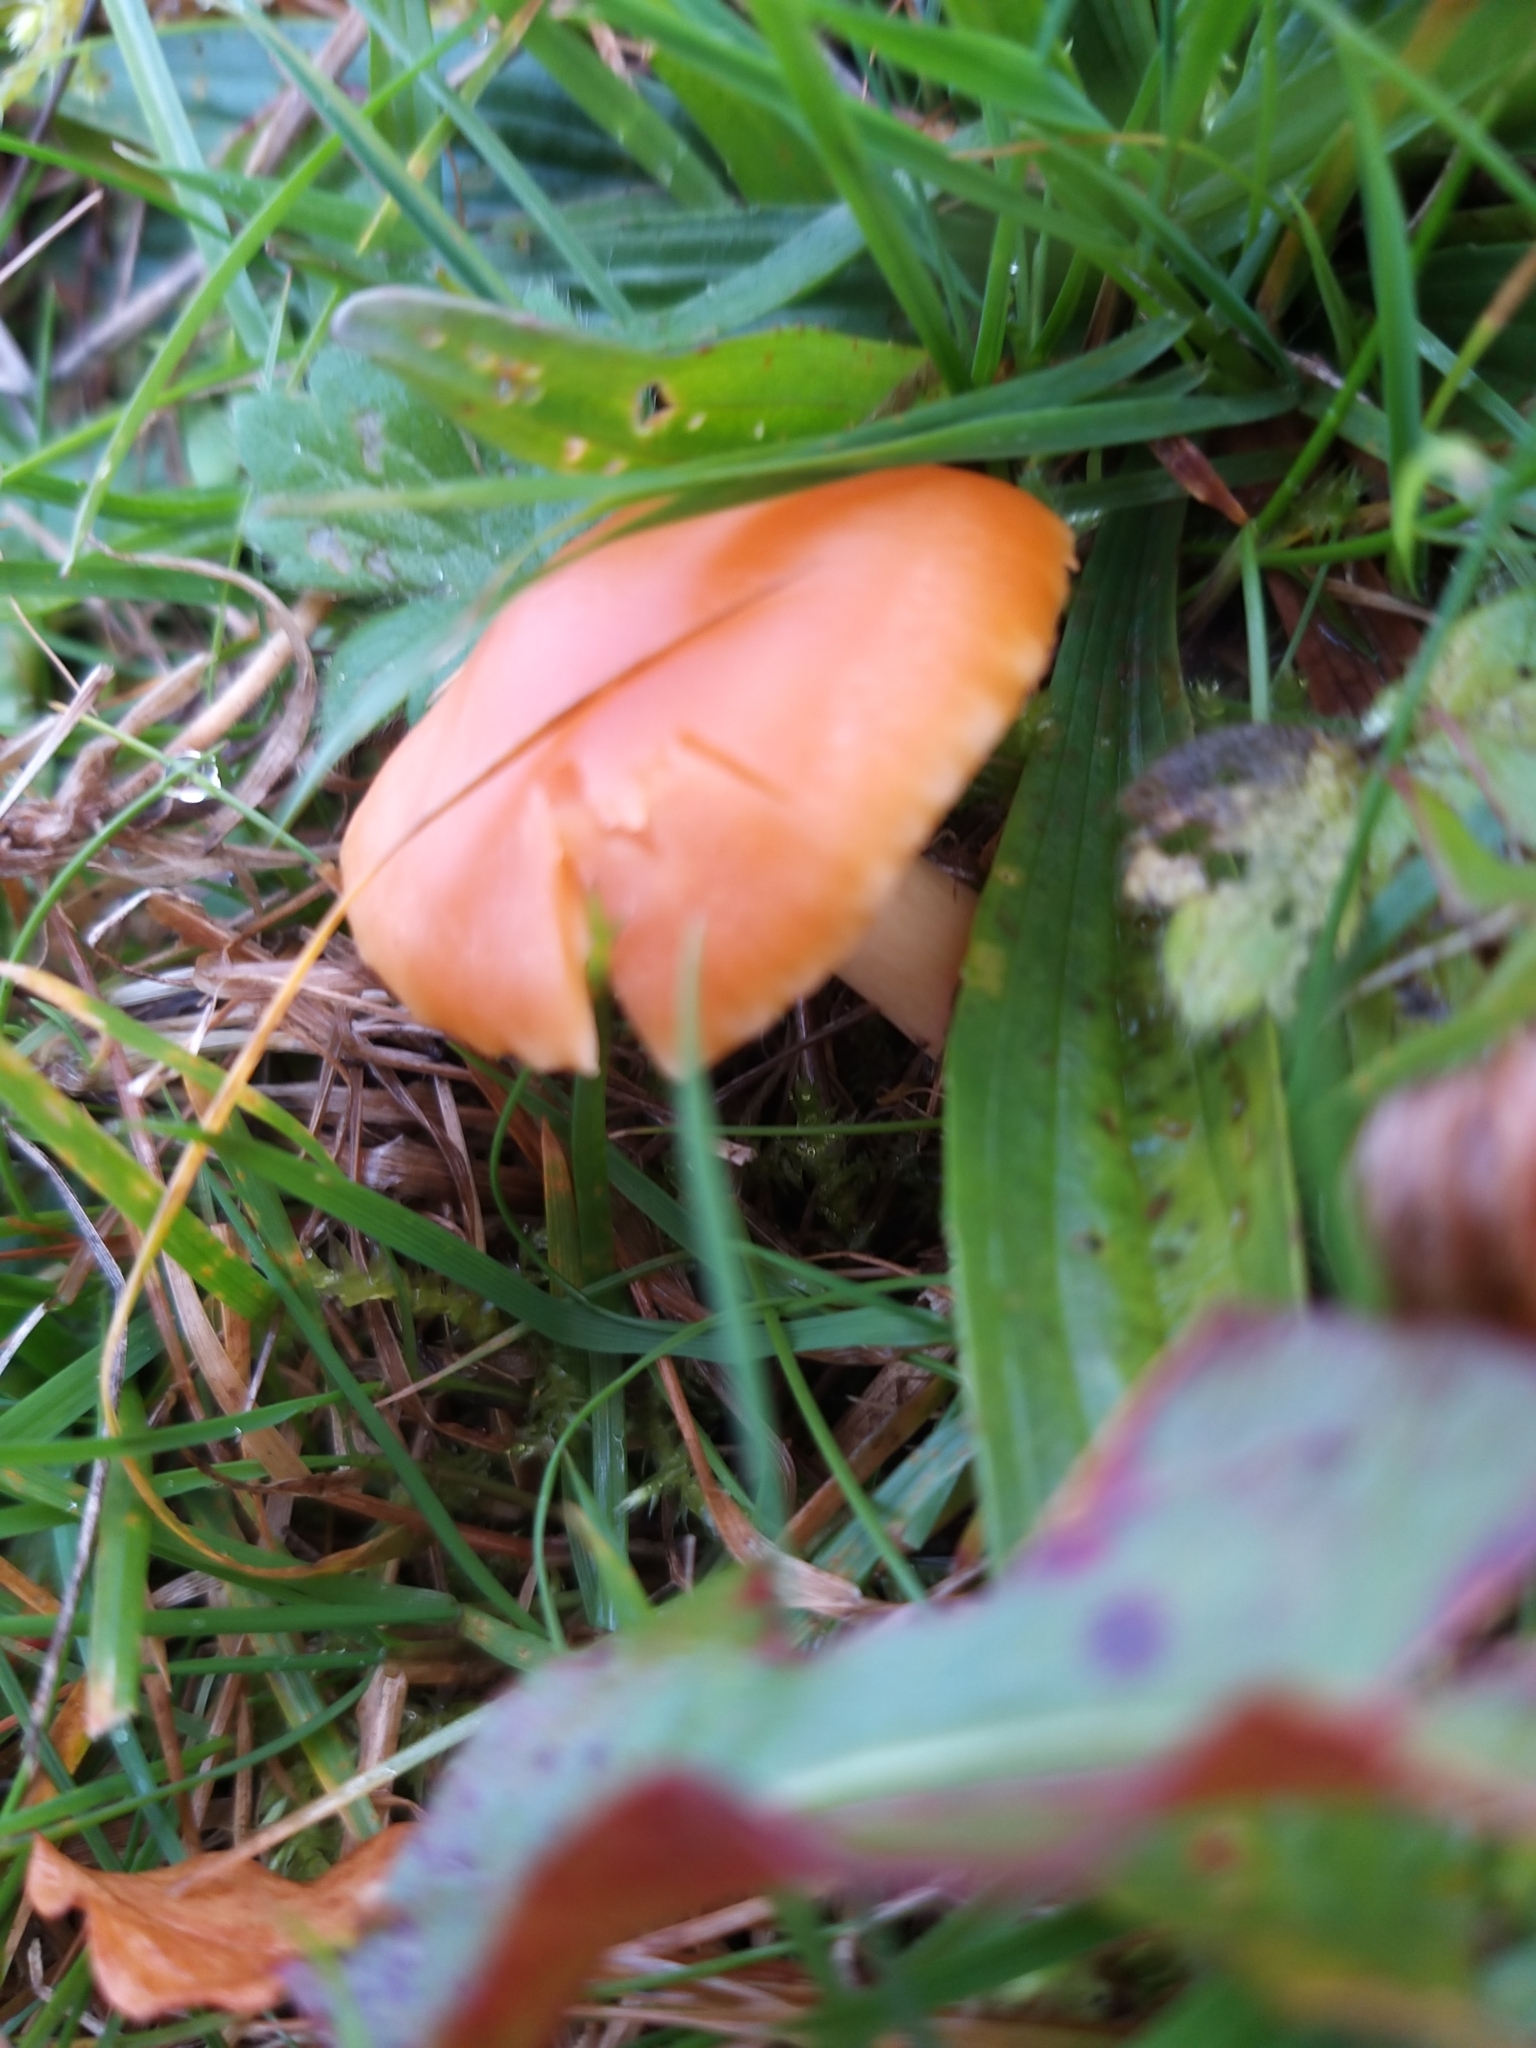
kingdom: Fungi
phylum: Basidiomycota
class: Agaricomycetes
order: Agaricales
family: Hygrophoraceae
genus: Cuphophyllus
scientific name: Cuphophyllus pratensis
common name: Meadow waxcap
